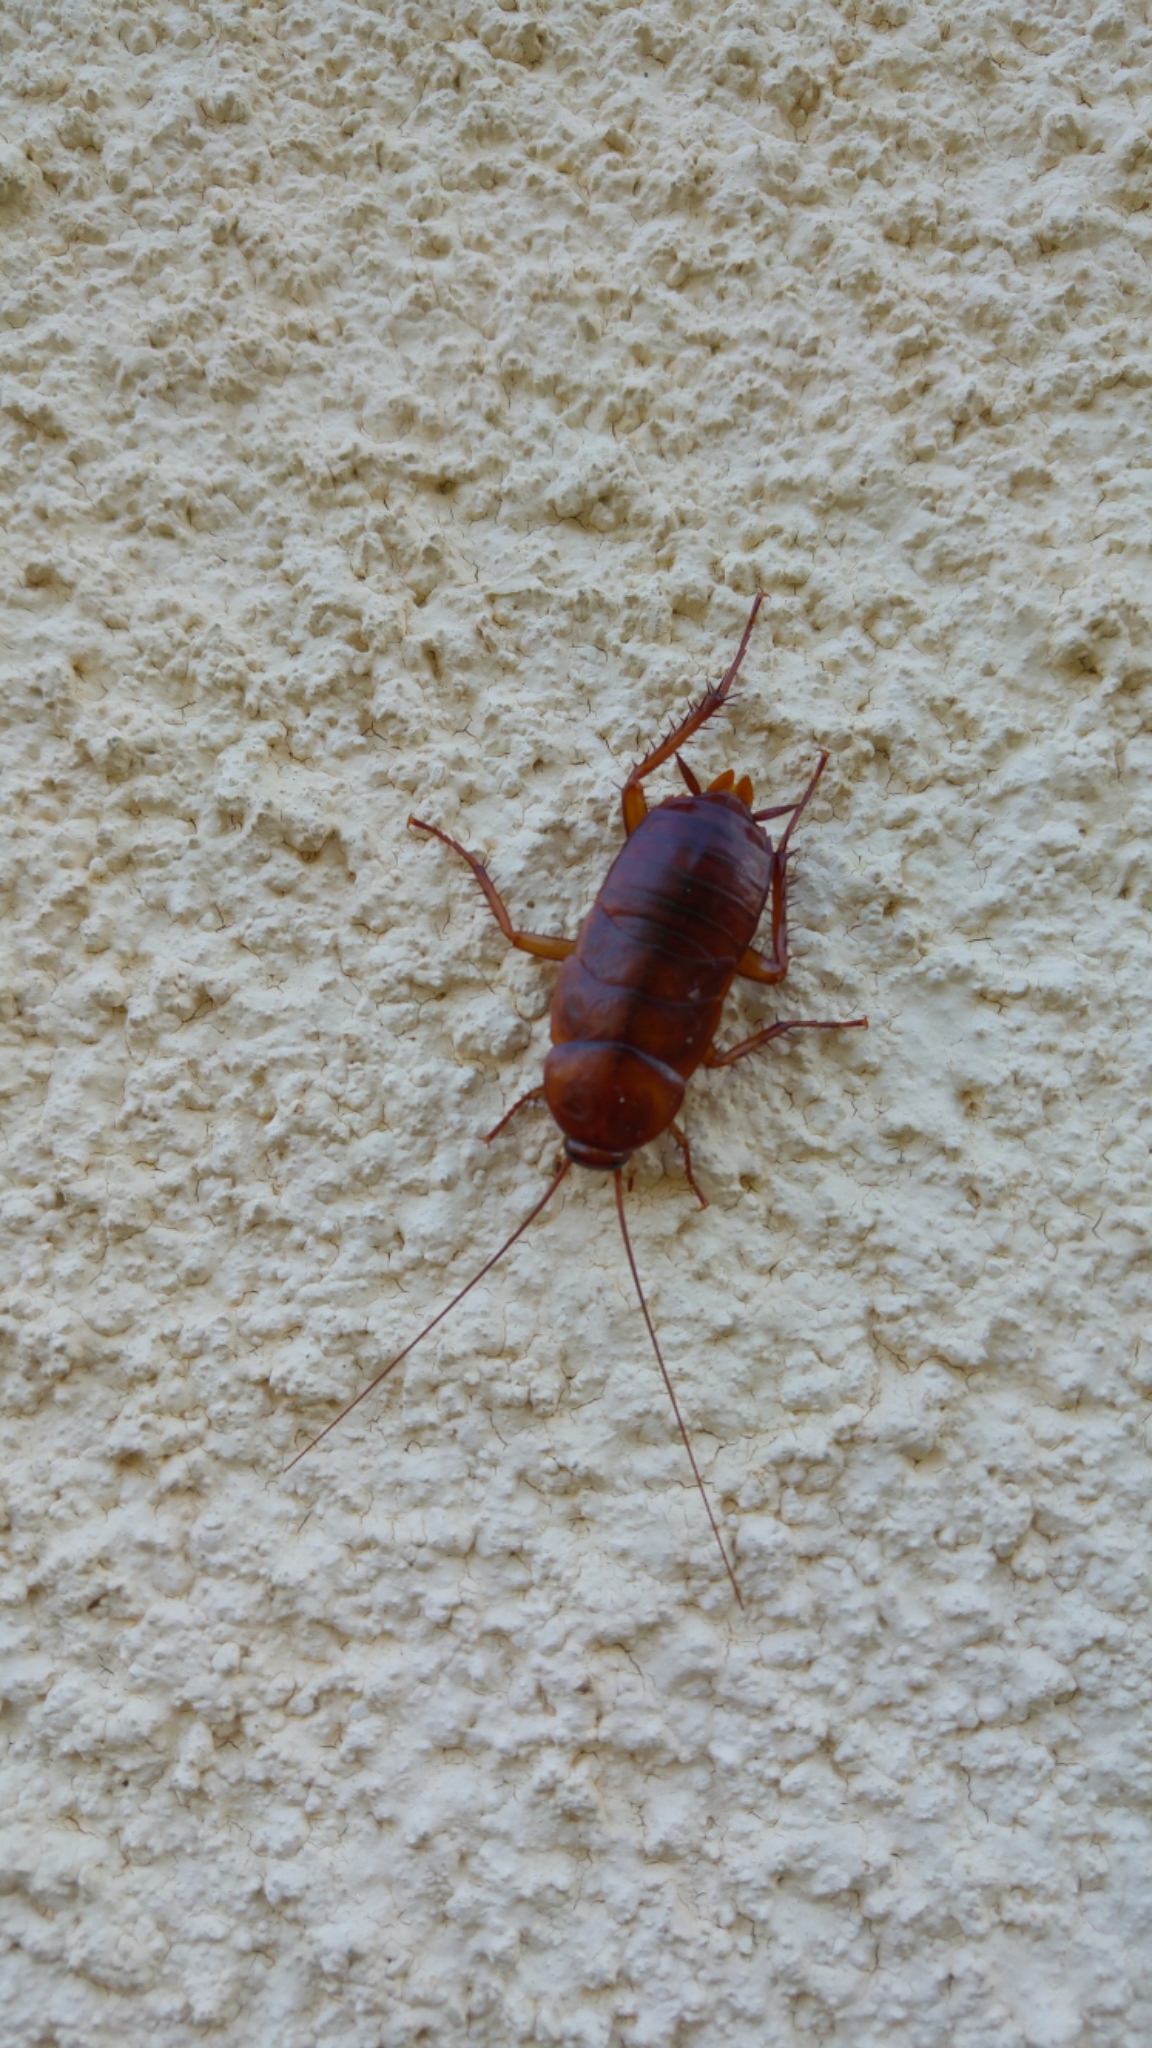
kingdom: Animalia
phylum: Arthropoda
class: Insecta
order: Blattodea
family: Blattidae
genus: Periplaneta
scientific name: Periplaneta americana
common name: American cockroach
